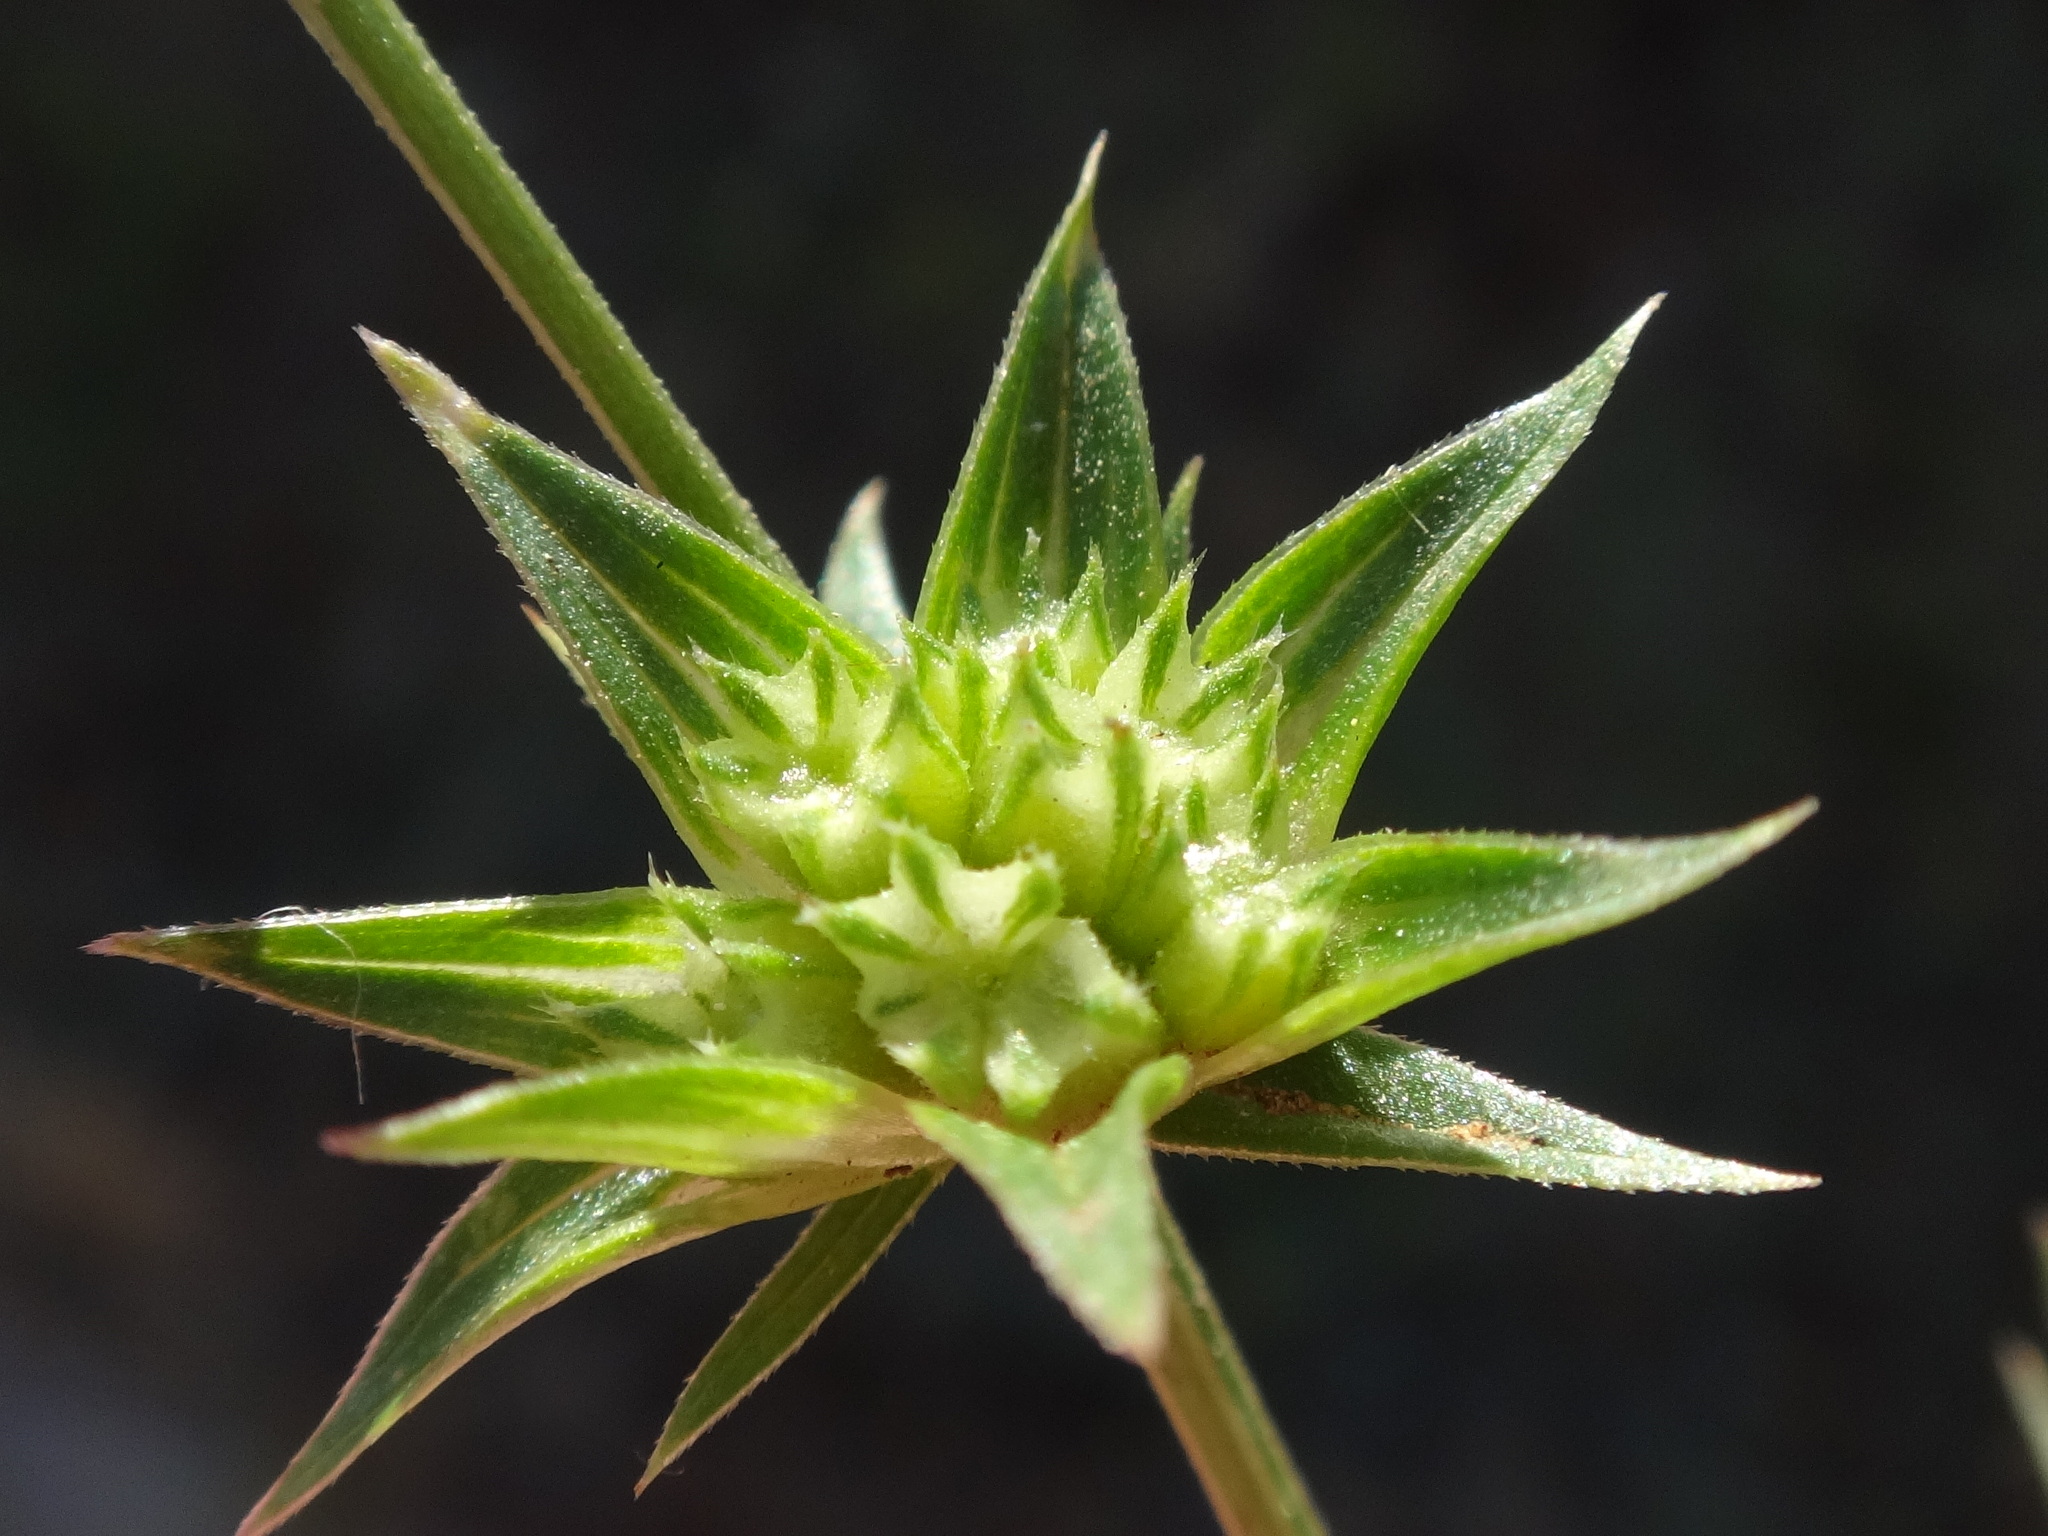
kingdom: Plantae
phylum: Tracheophyta
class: Magnoliopsida
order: Gentianales
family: Rubiaceae
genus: Sherardia
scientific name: Sherardia arvensis
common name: Field madder
